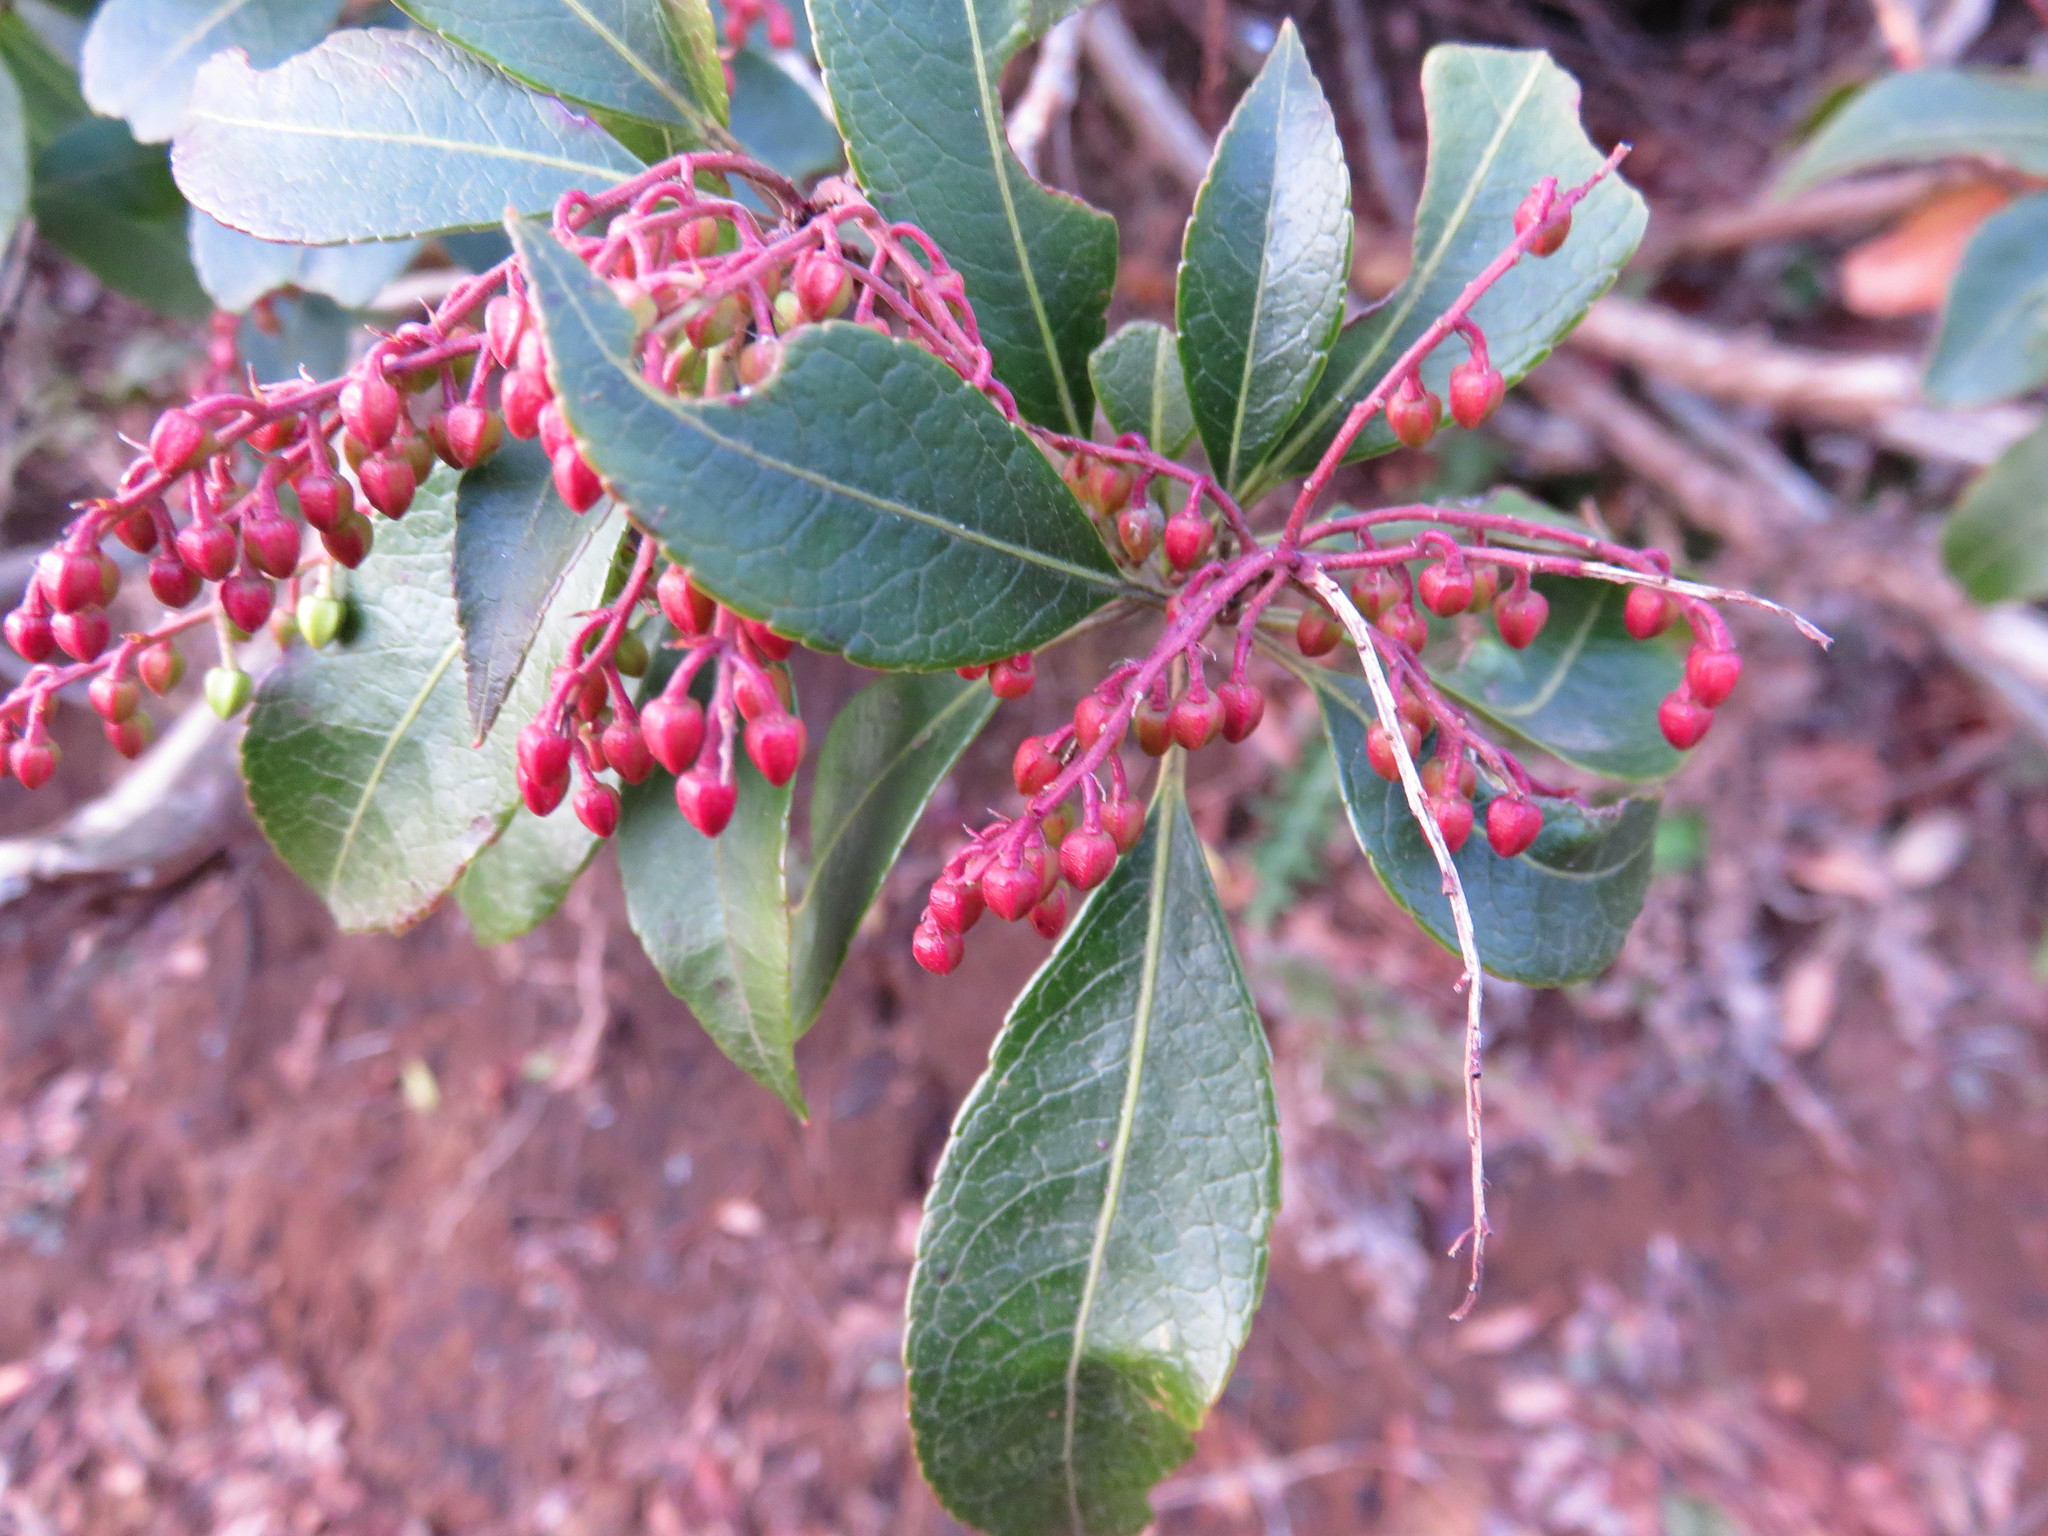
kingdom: Plantae
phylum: Tracheophyta
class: Magnoliopsida
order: Ericales
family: Ericaceae
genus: Pieris
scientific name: Pieris japonica
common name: Japanese pieris
